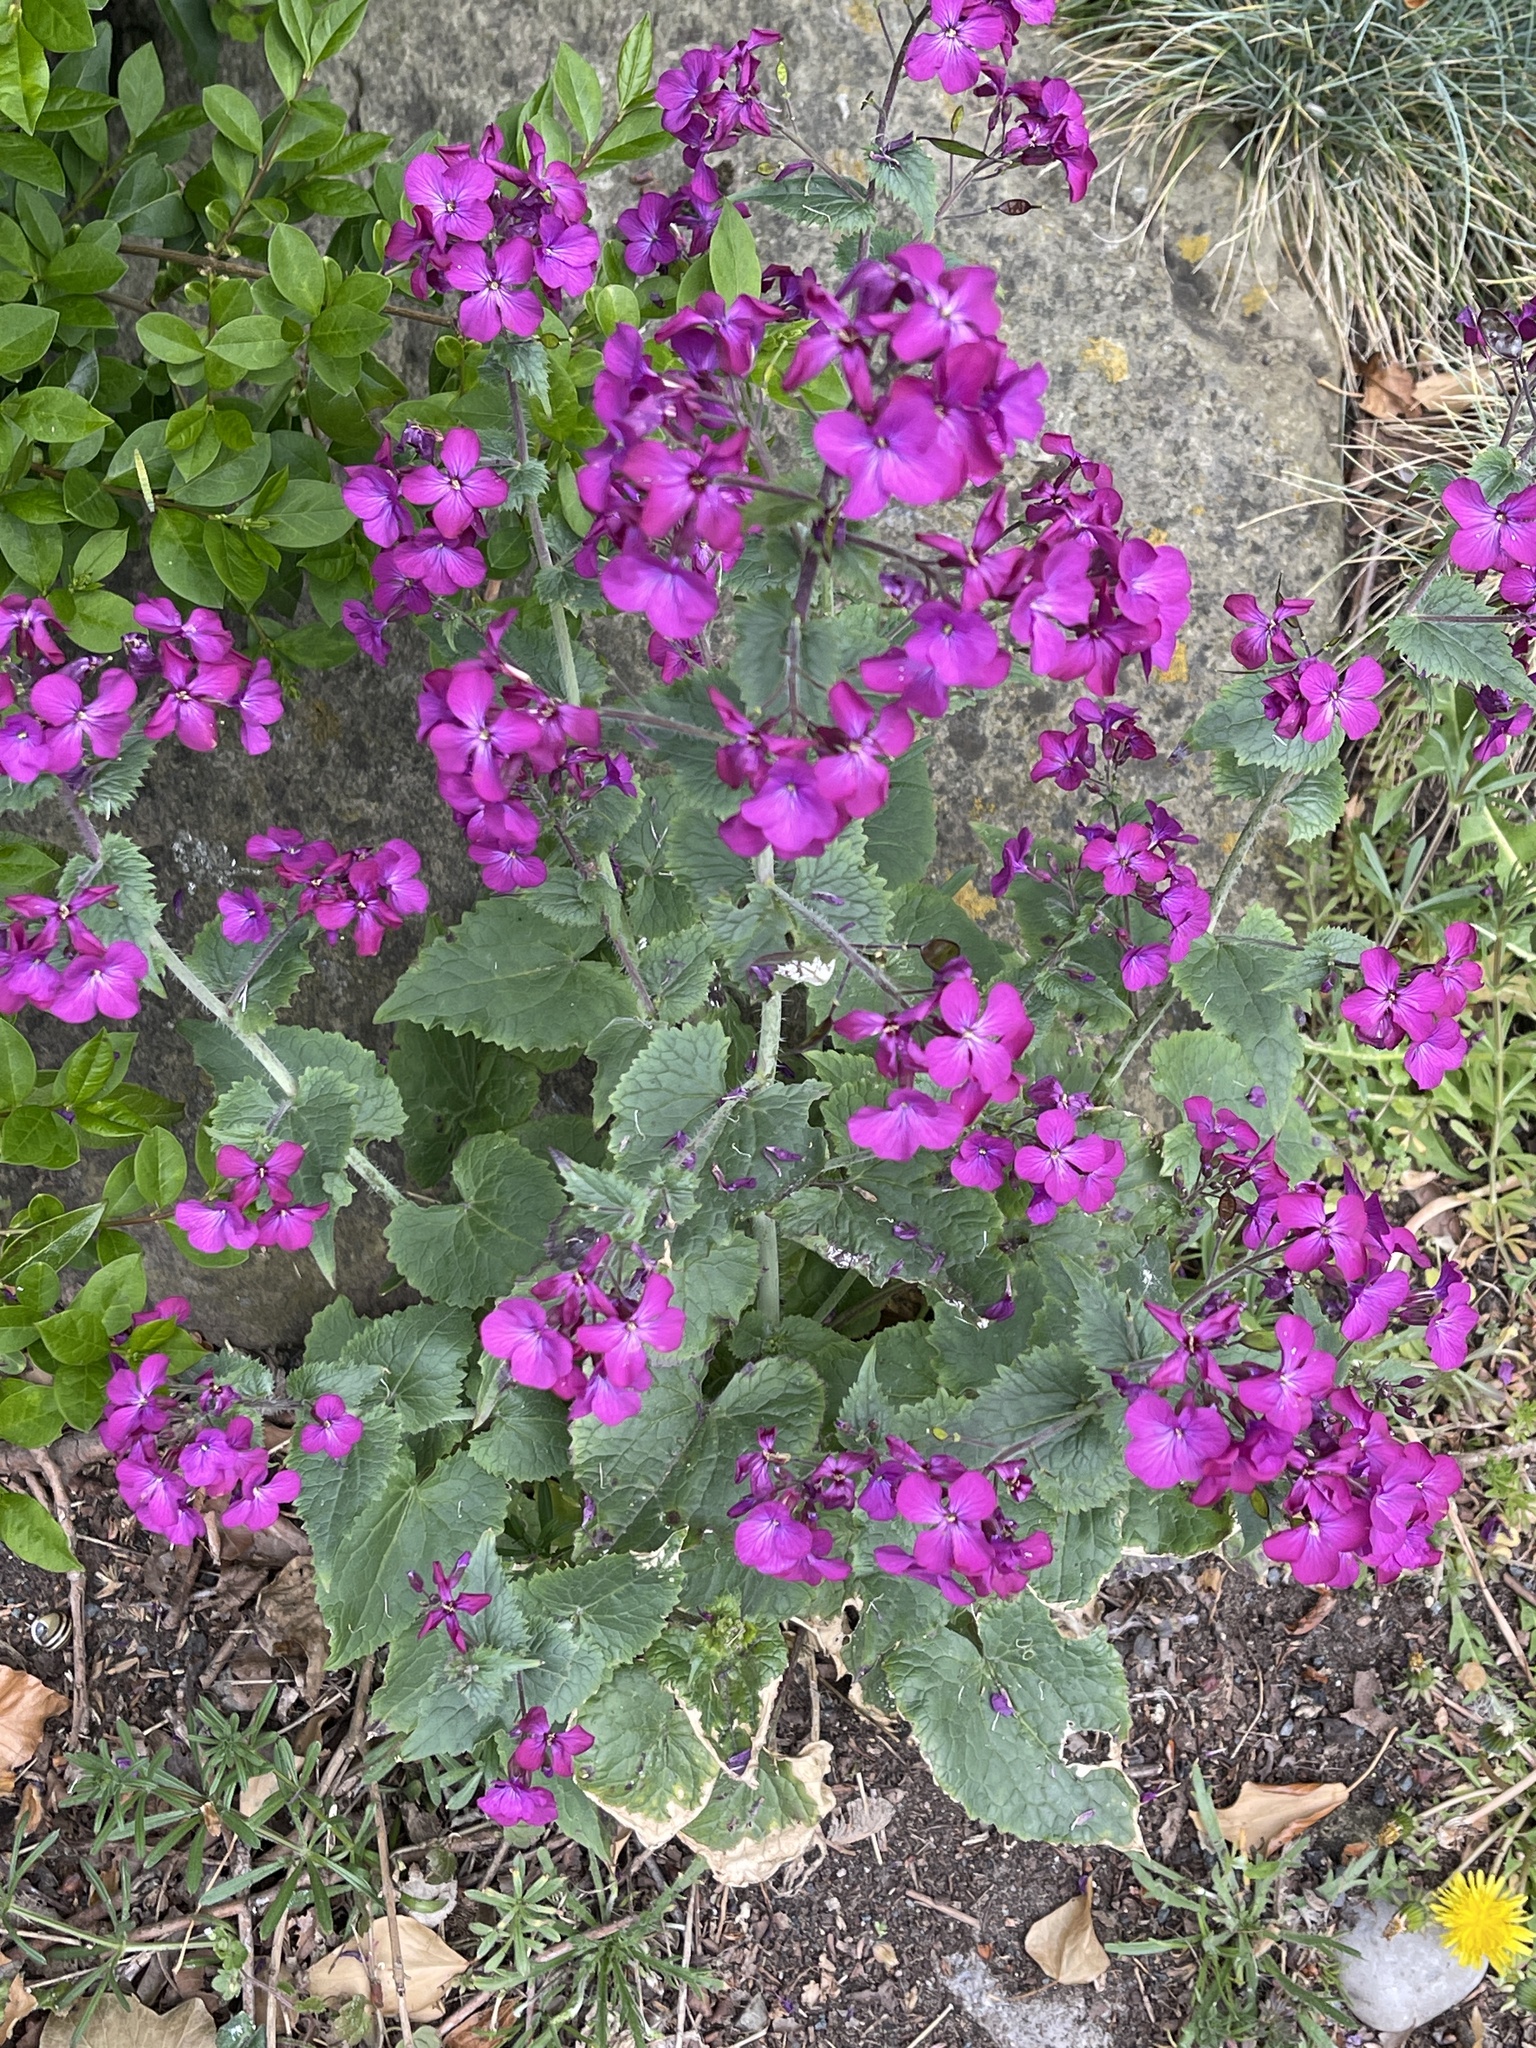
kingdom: Plantae
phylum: Tracheophyta
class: Magnoliopsida
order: Brassicales
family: Brassicaceae
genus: Lunaria
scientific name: Lunaria annua
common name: Honesty
